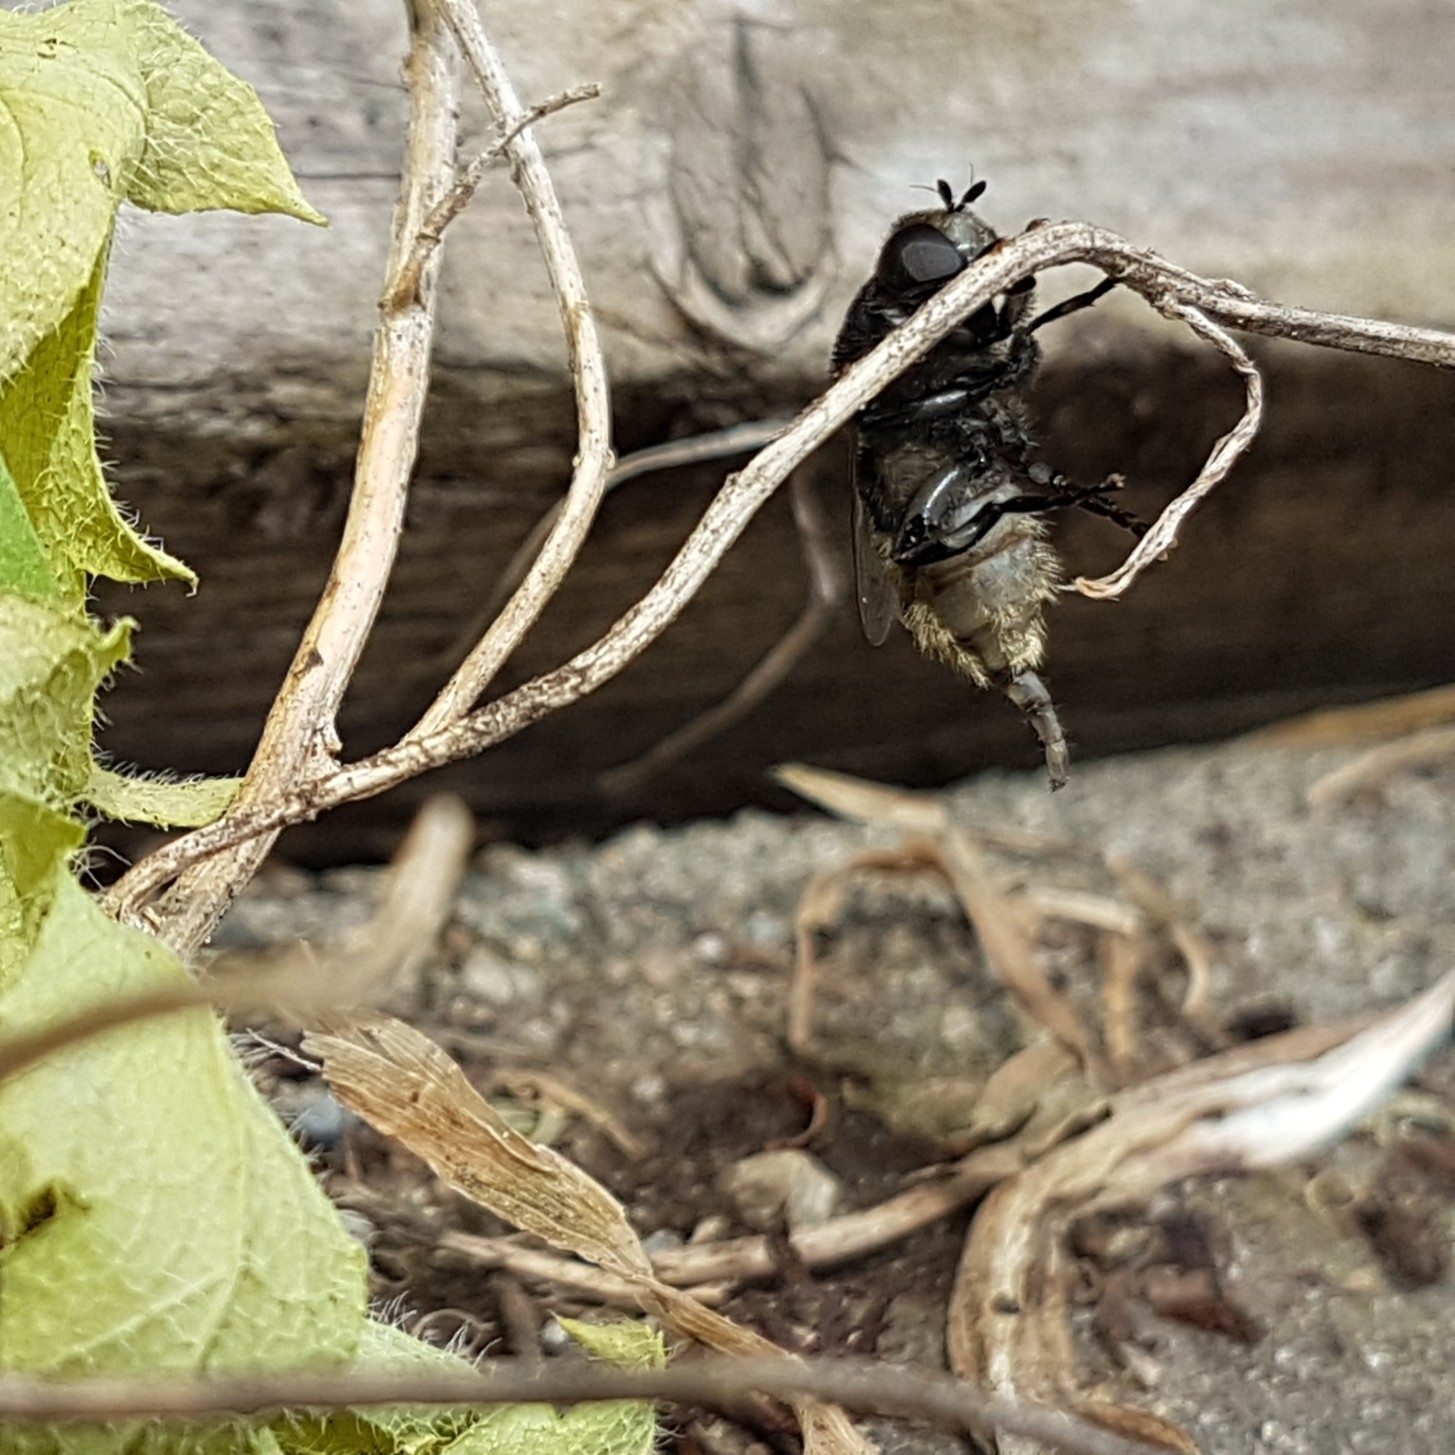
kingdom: Animalia
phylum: Arthropoda
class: Insecta
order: Diptera
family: Syrphidae
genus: Merodon
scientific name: Merodon equestris
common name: Greater bulb-fly
